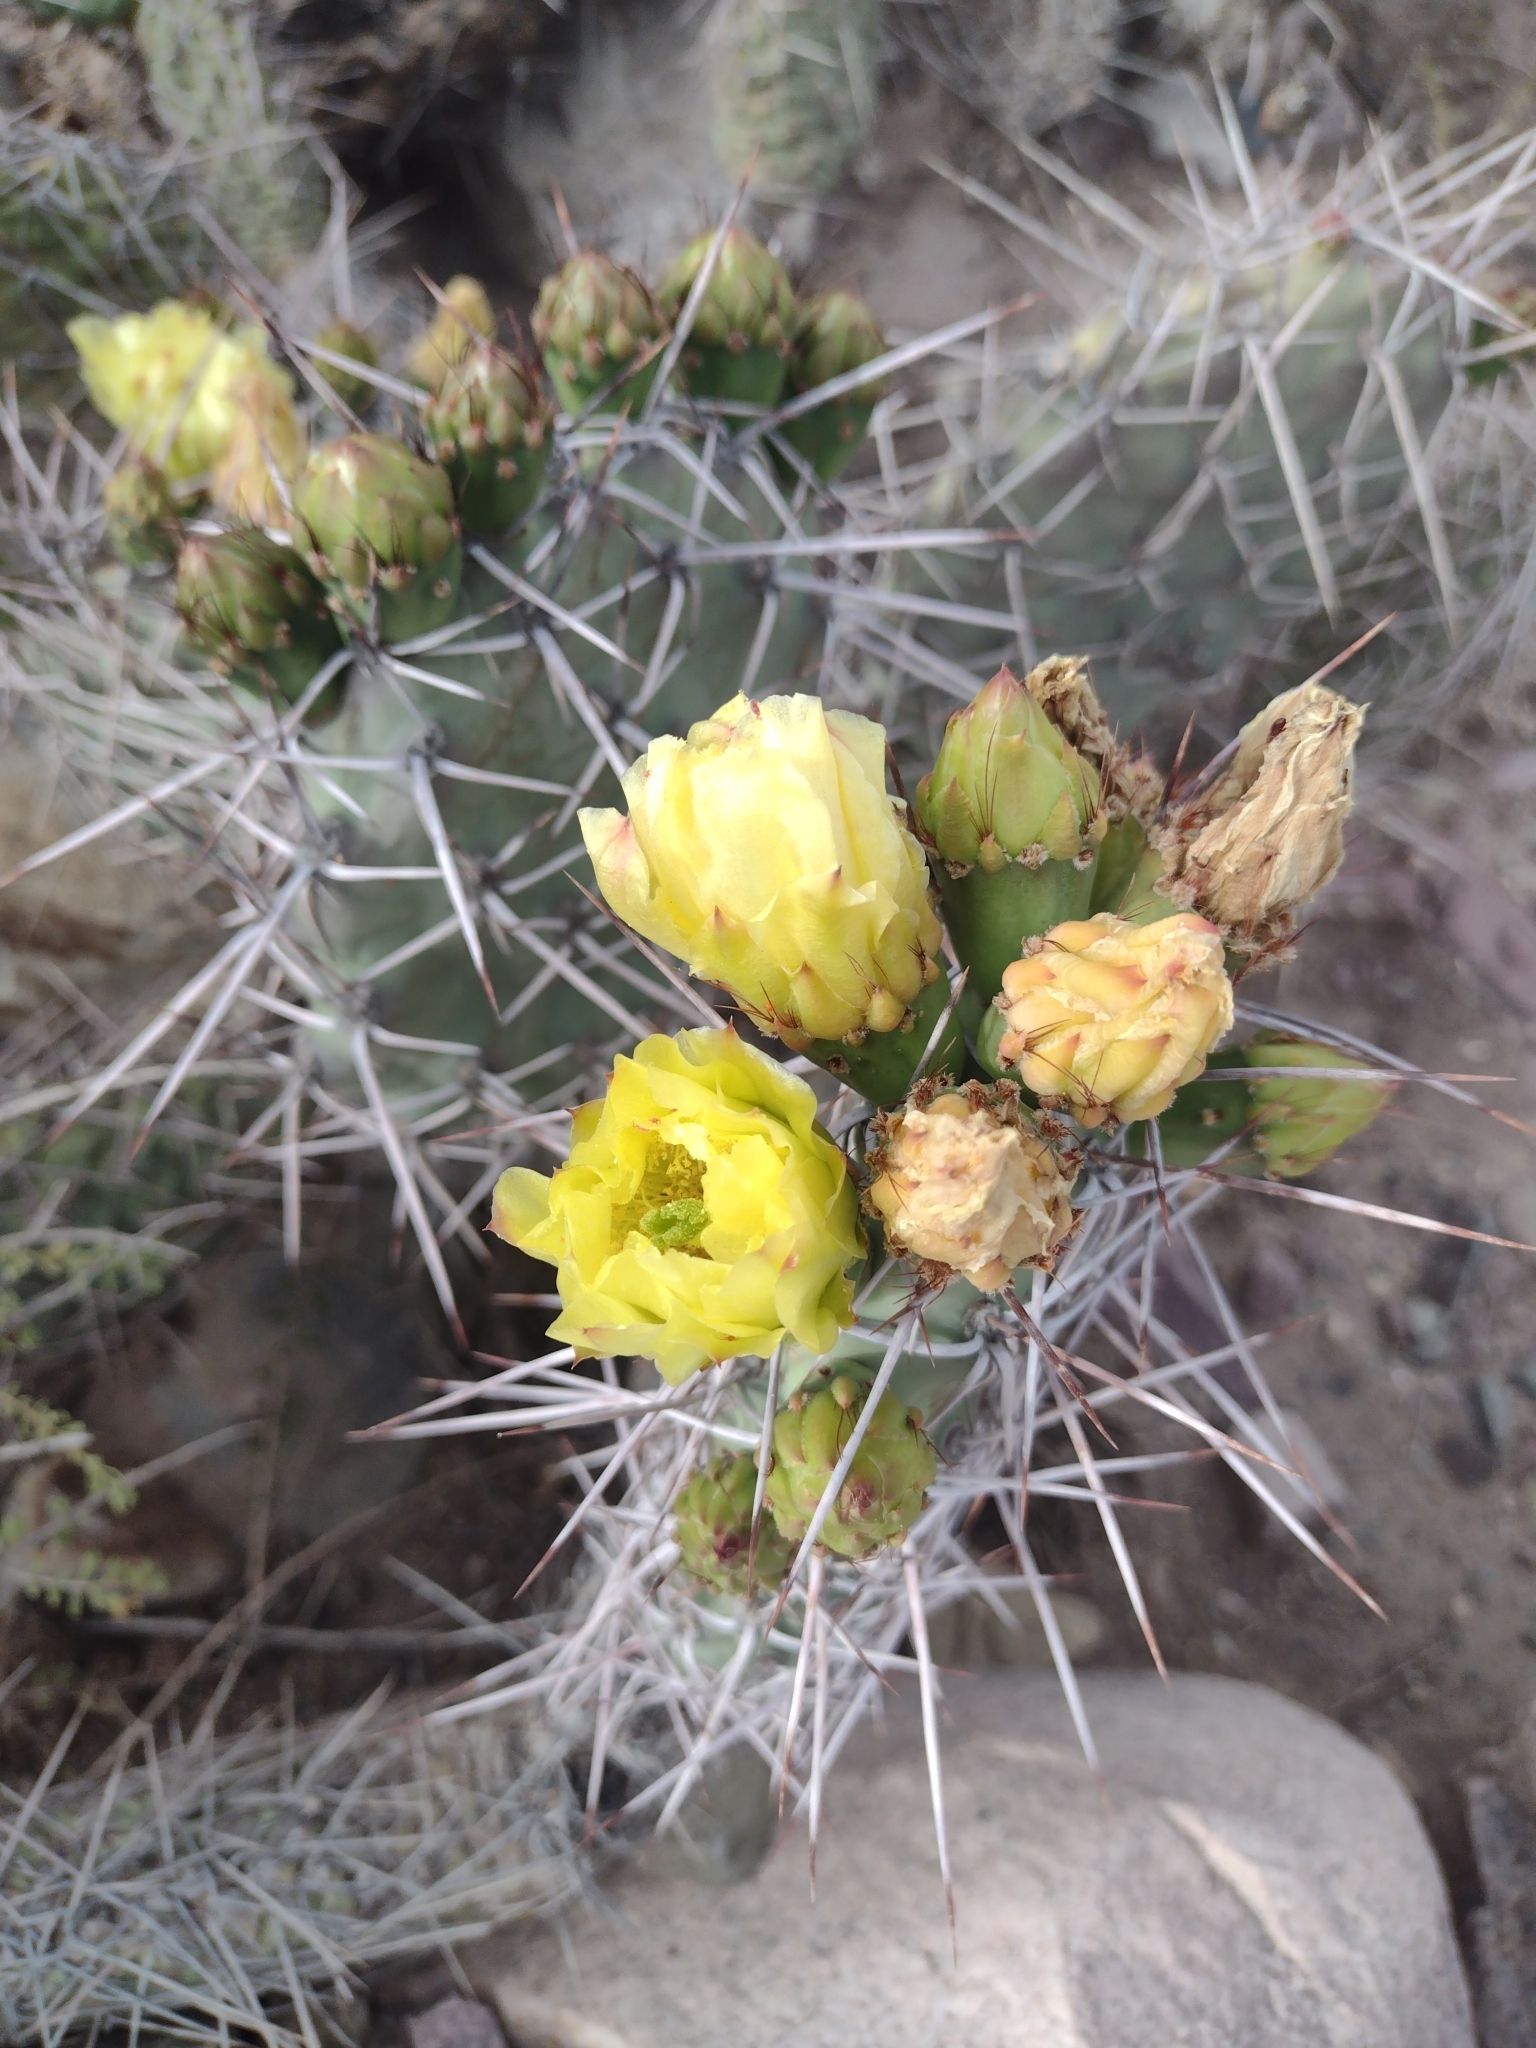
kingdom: Plantae
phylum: Tracheophyta
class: Magnoliopsida
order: Caryophyllales
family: Cactaceae
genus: Opuntia
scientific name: Opuntia sulphurea
